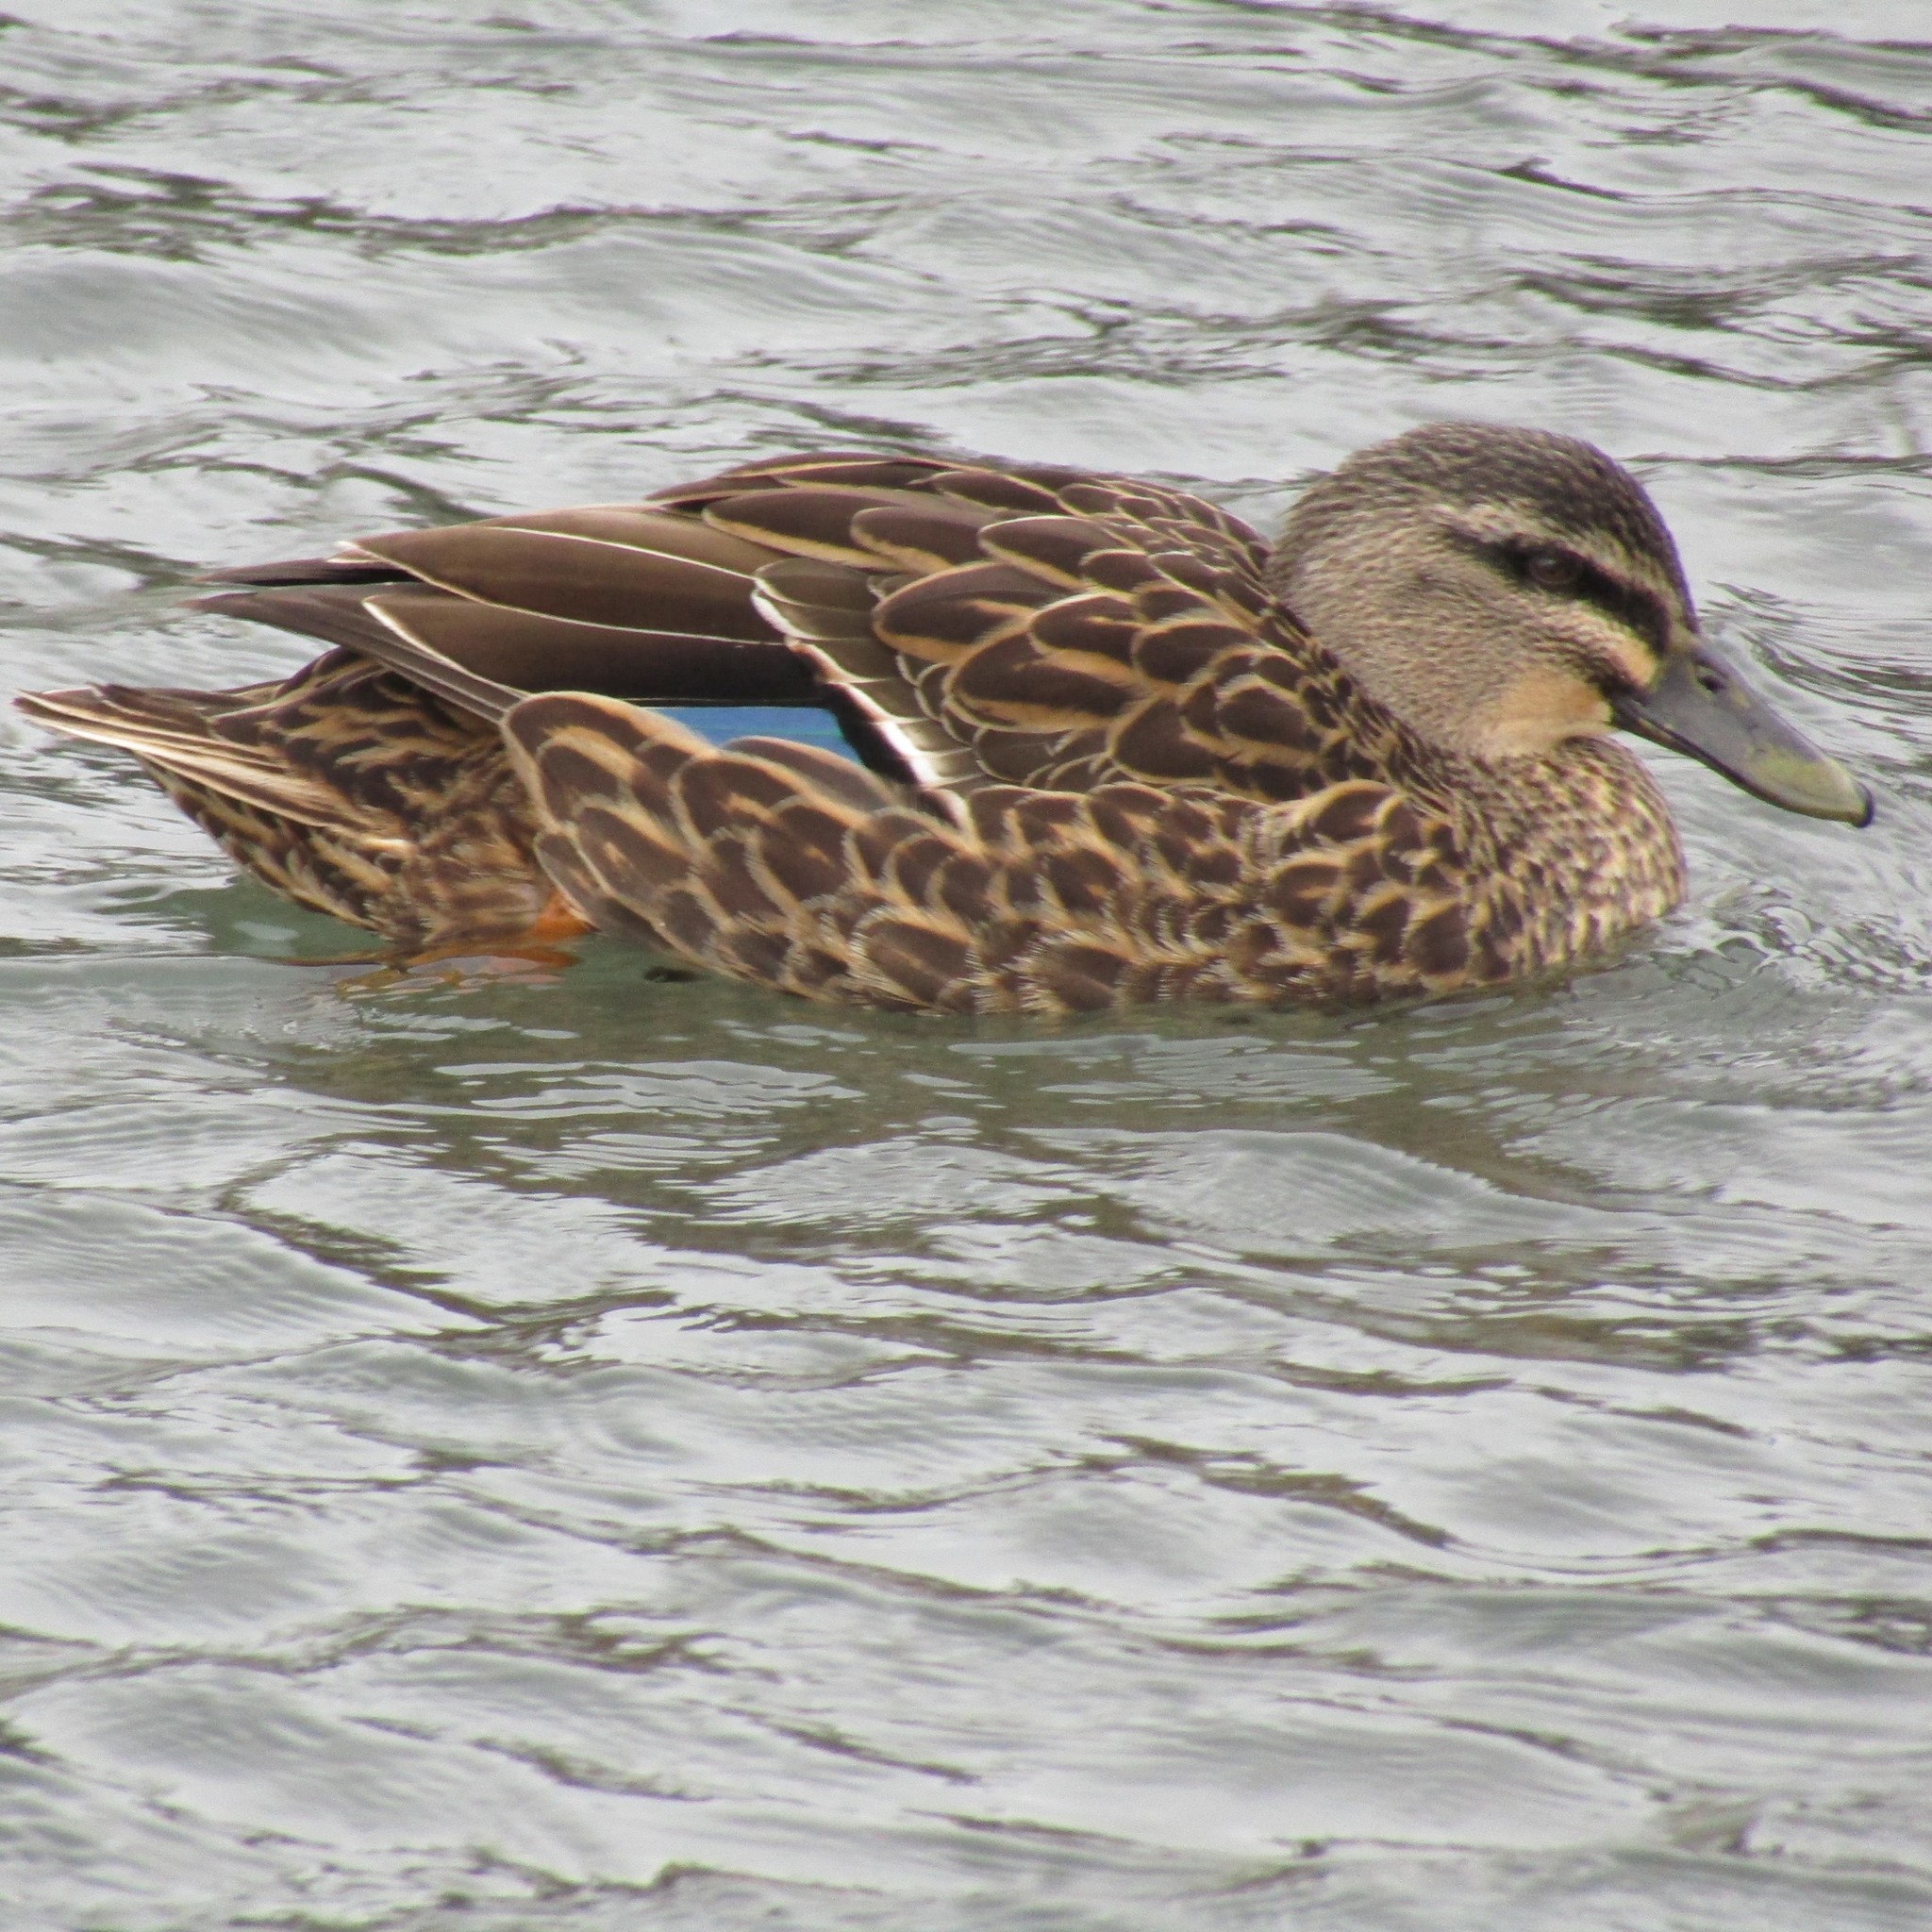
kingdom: Animalia
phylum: Chordata
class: Aves
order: Anseriformes
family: Anatidae
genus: Anas
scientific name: Anas
